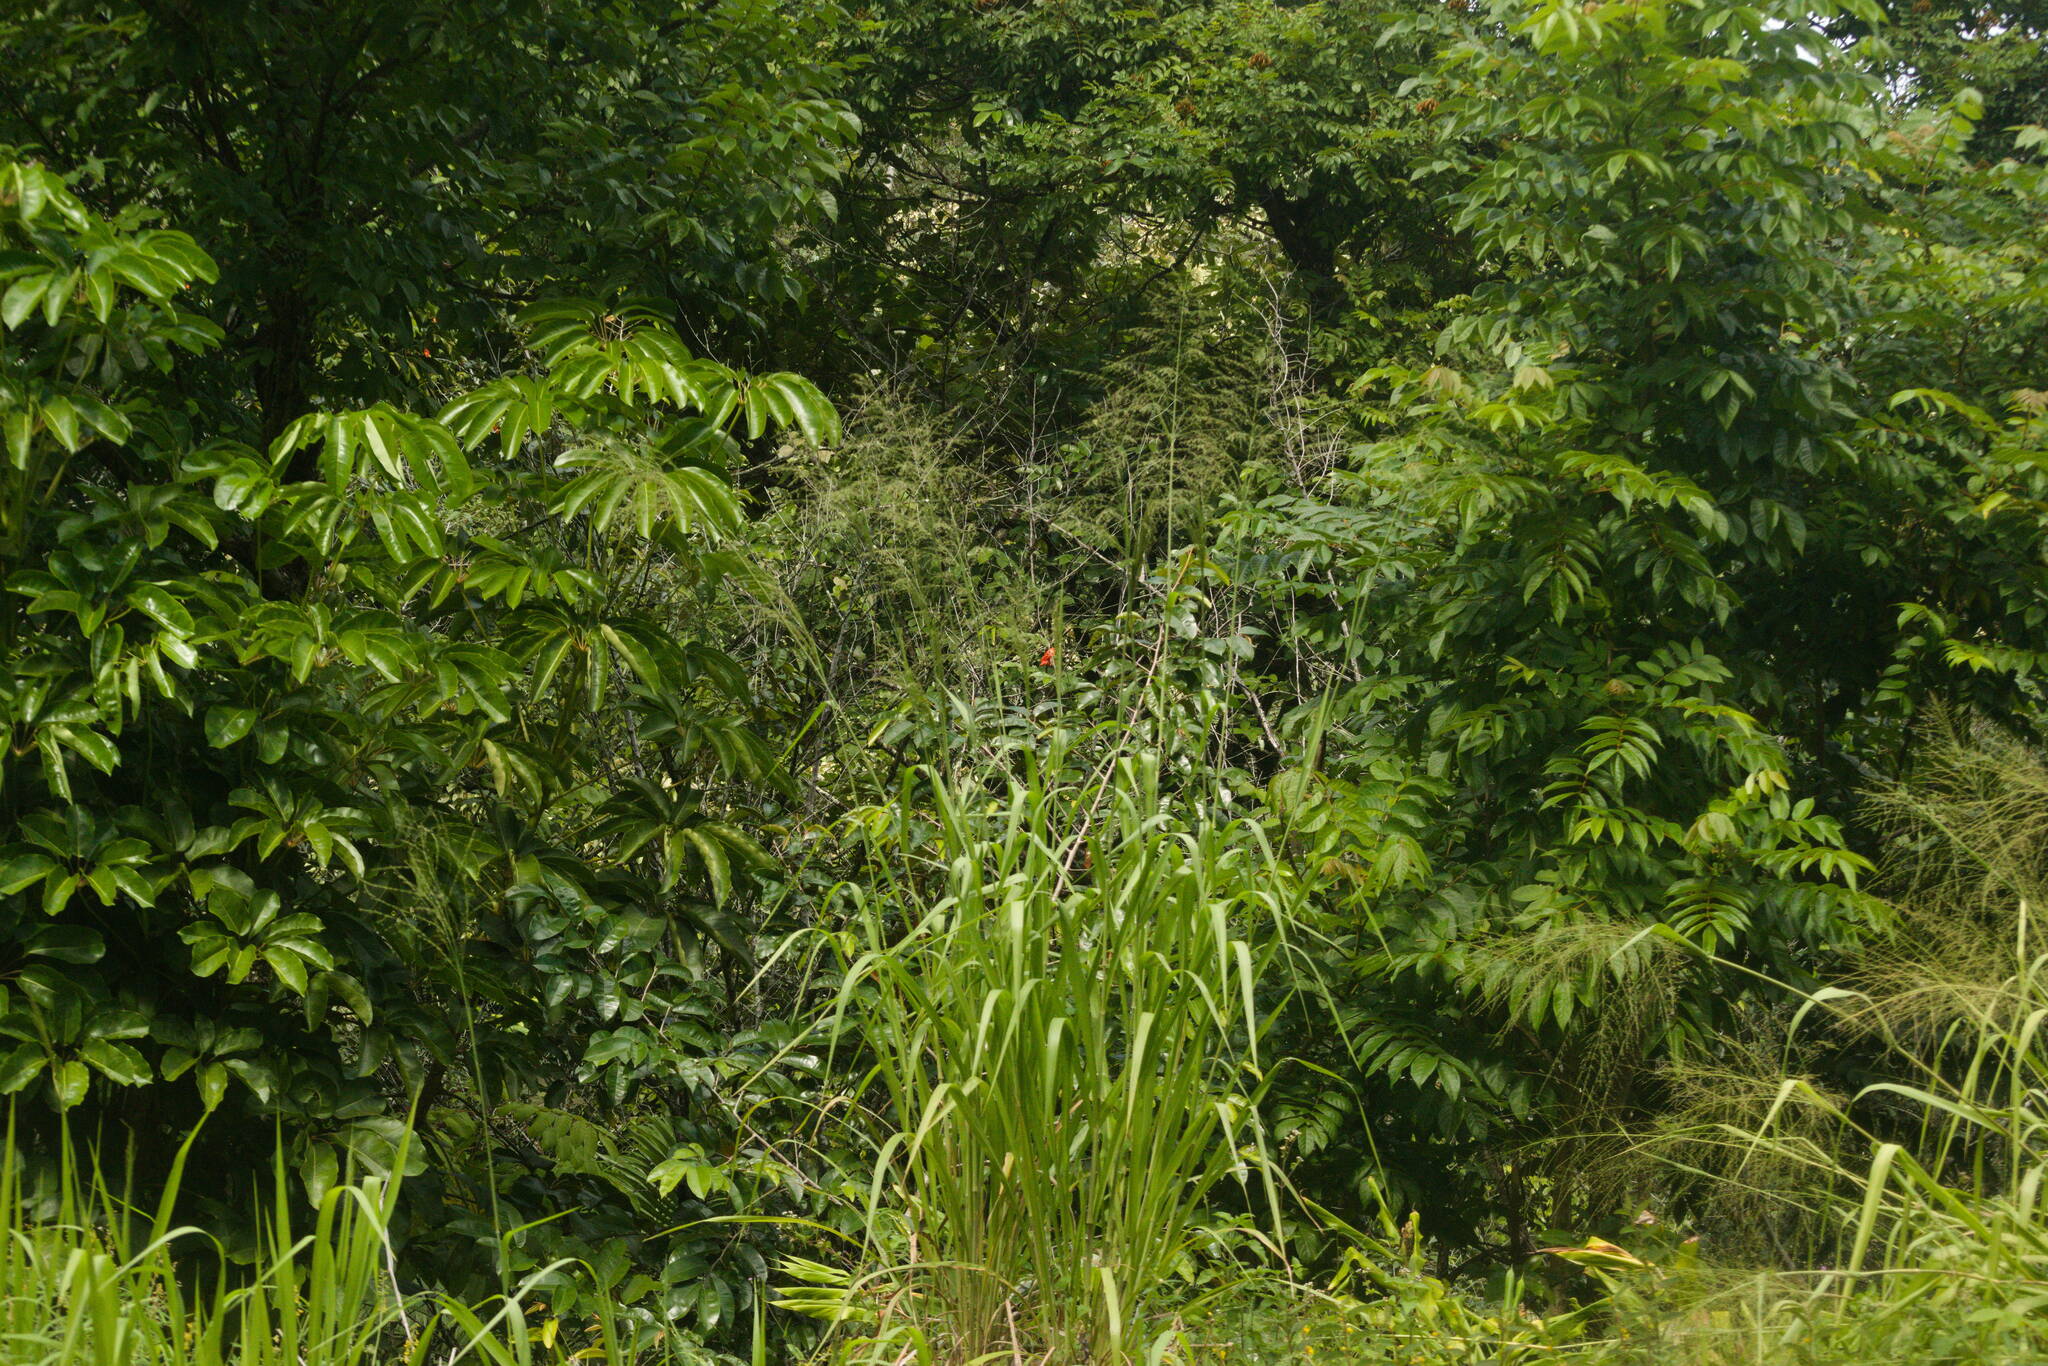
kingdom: Plantae
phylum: Tracheophyta
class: Liliopsida
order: Poales
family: Poaceae
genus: Megathyrsus
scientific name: Megathyrsus maximus
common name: Guineagrass
